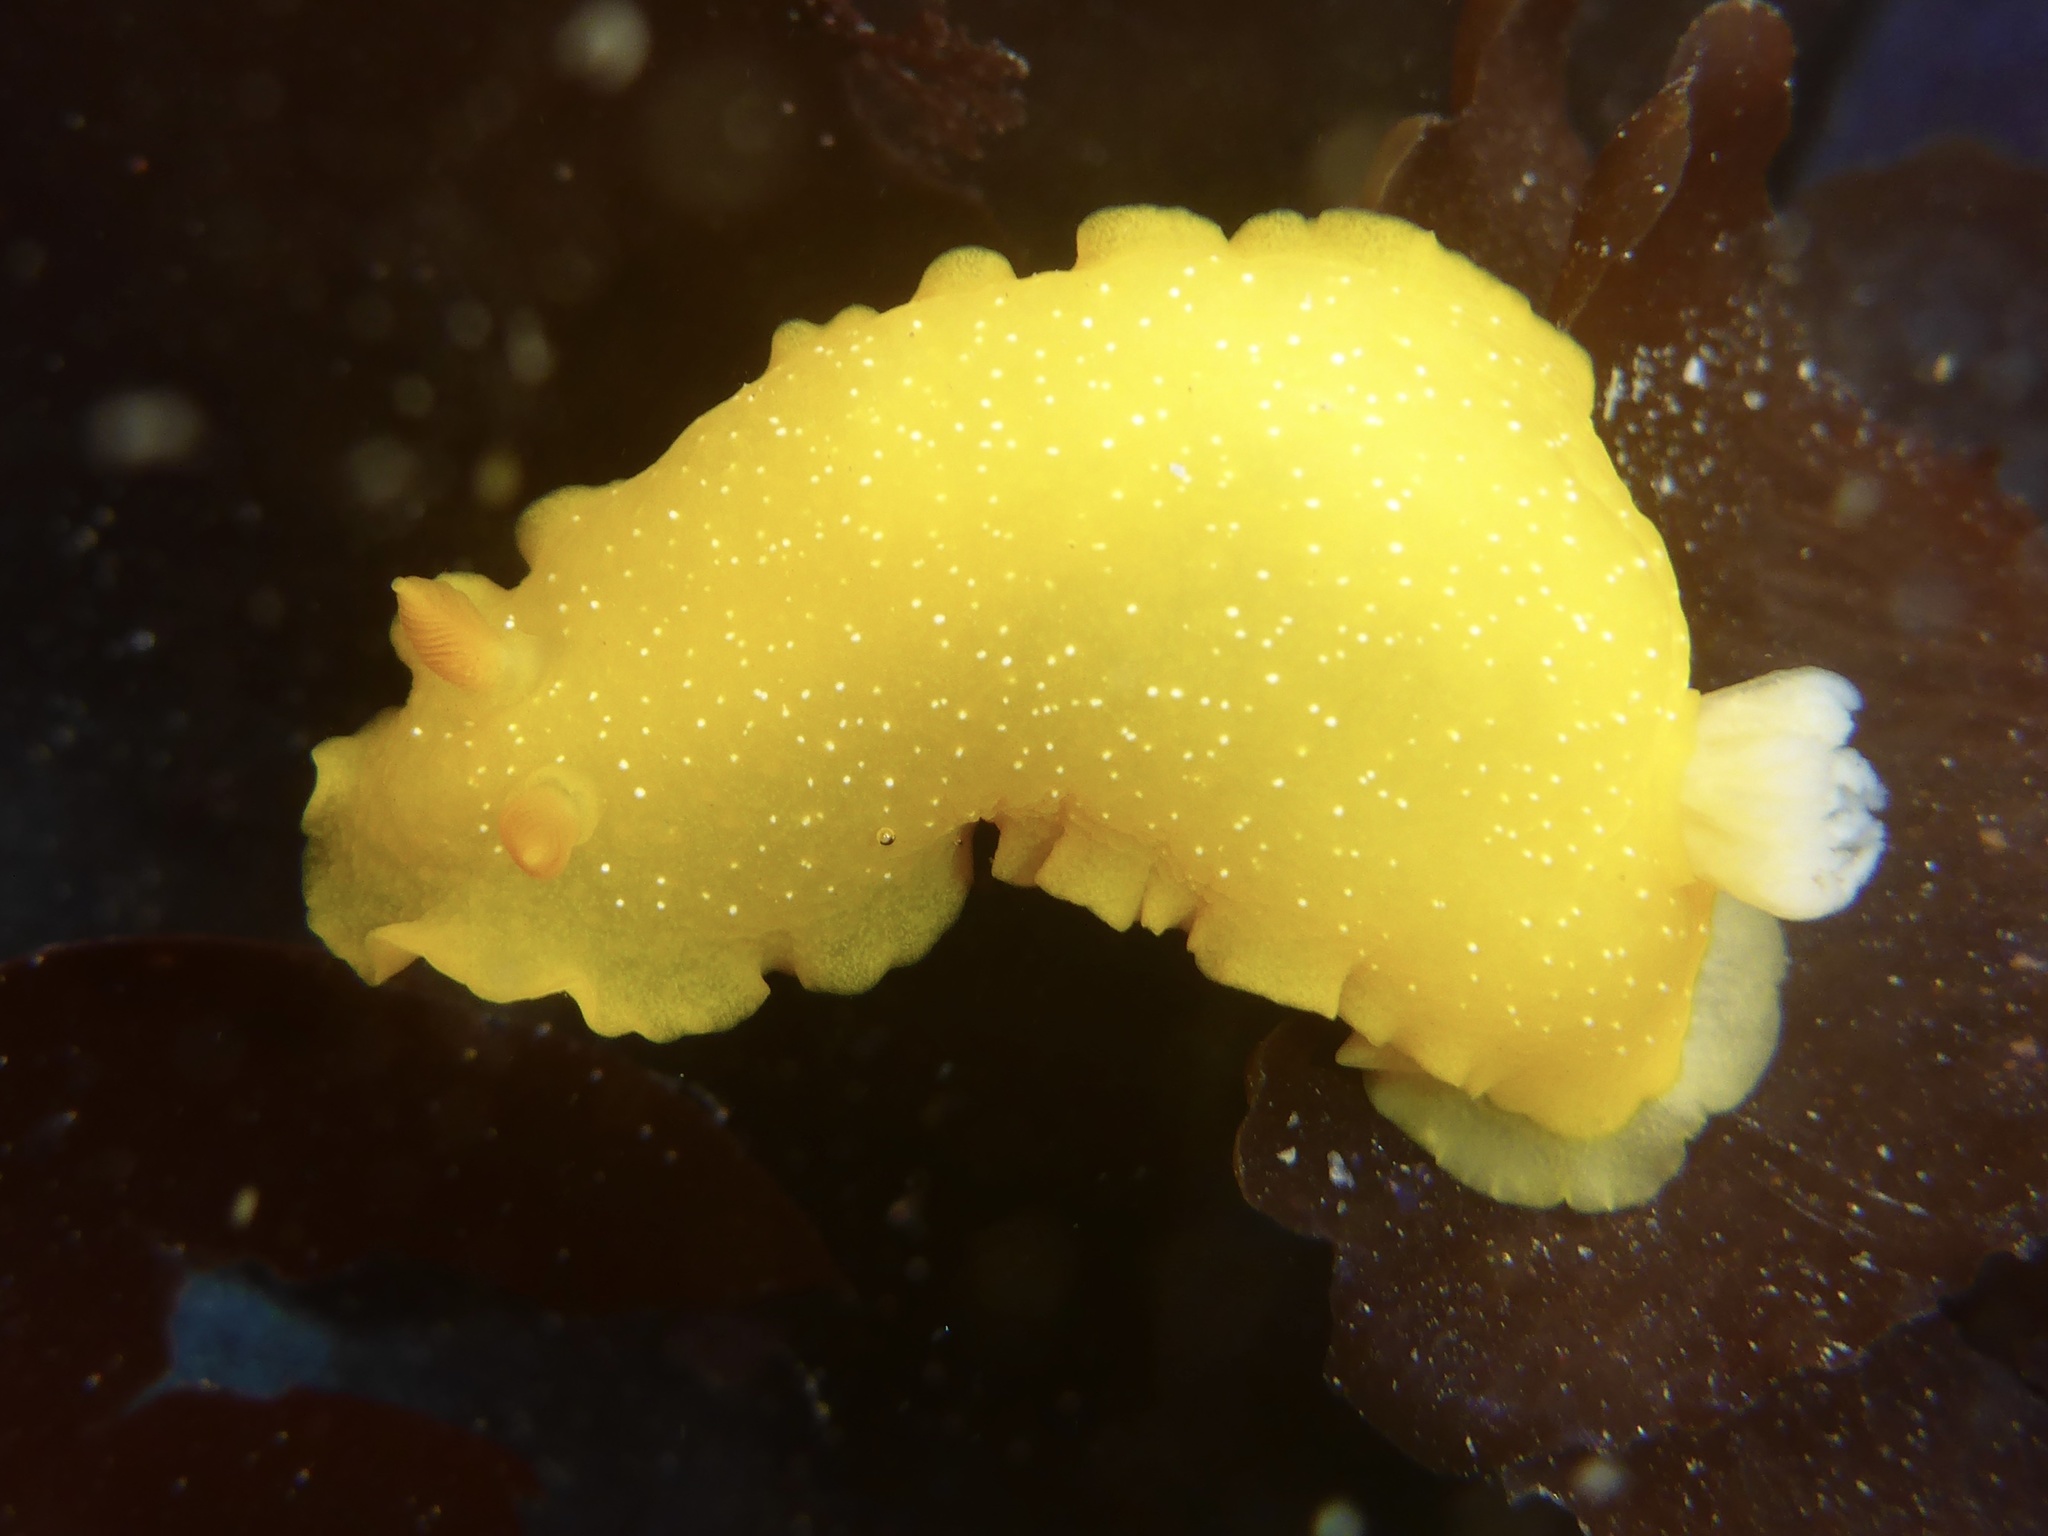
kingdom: Animalia
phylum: Mollusca
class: Gastropoda
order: Nudibranchia
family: Dendrodorididae
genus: Doriopsilla
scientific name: Doriopsilla fulva
